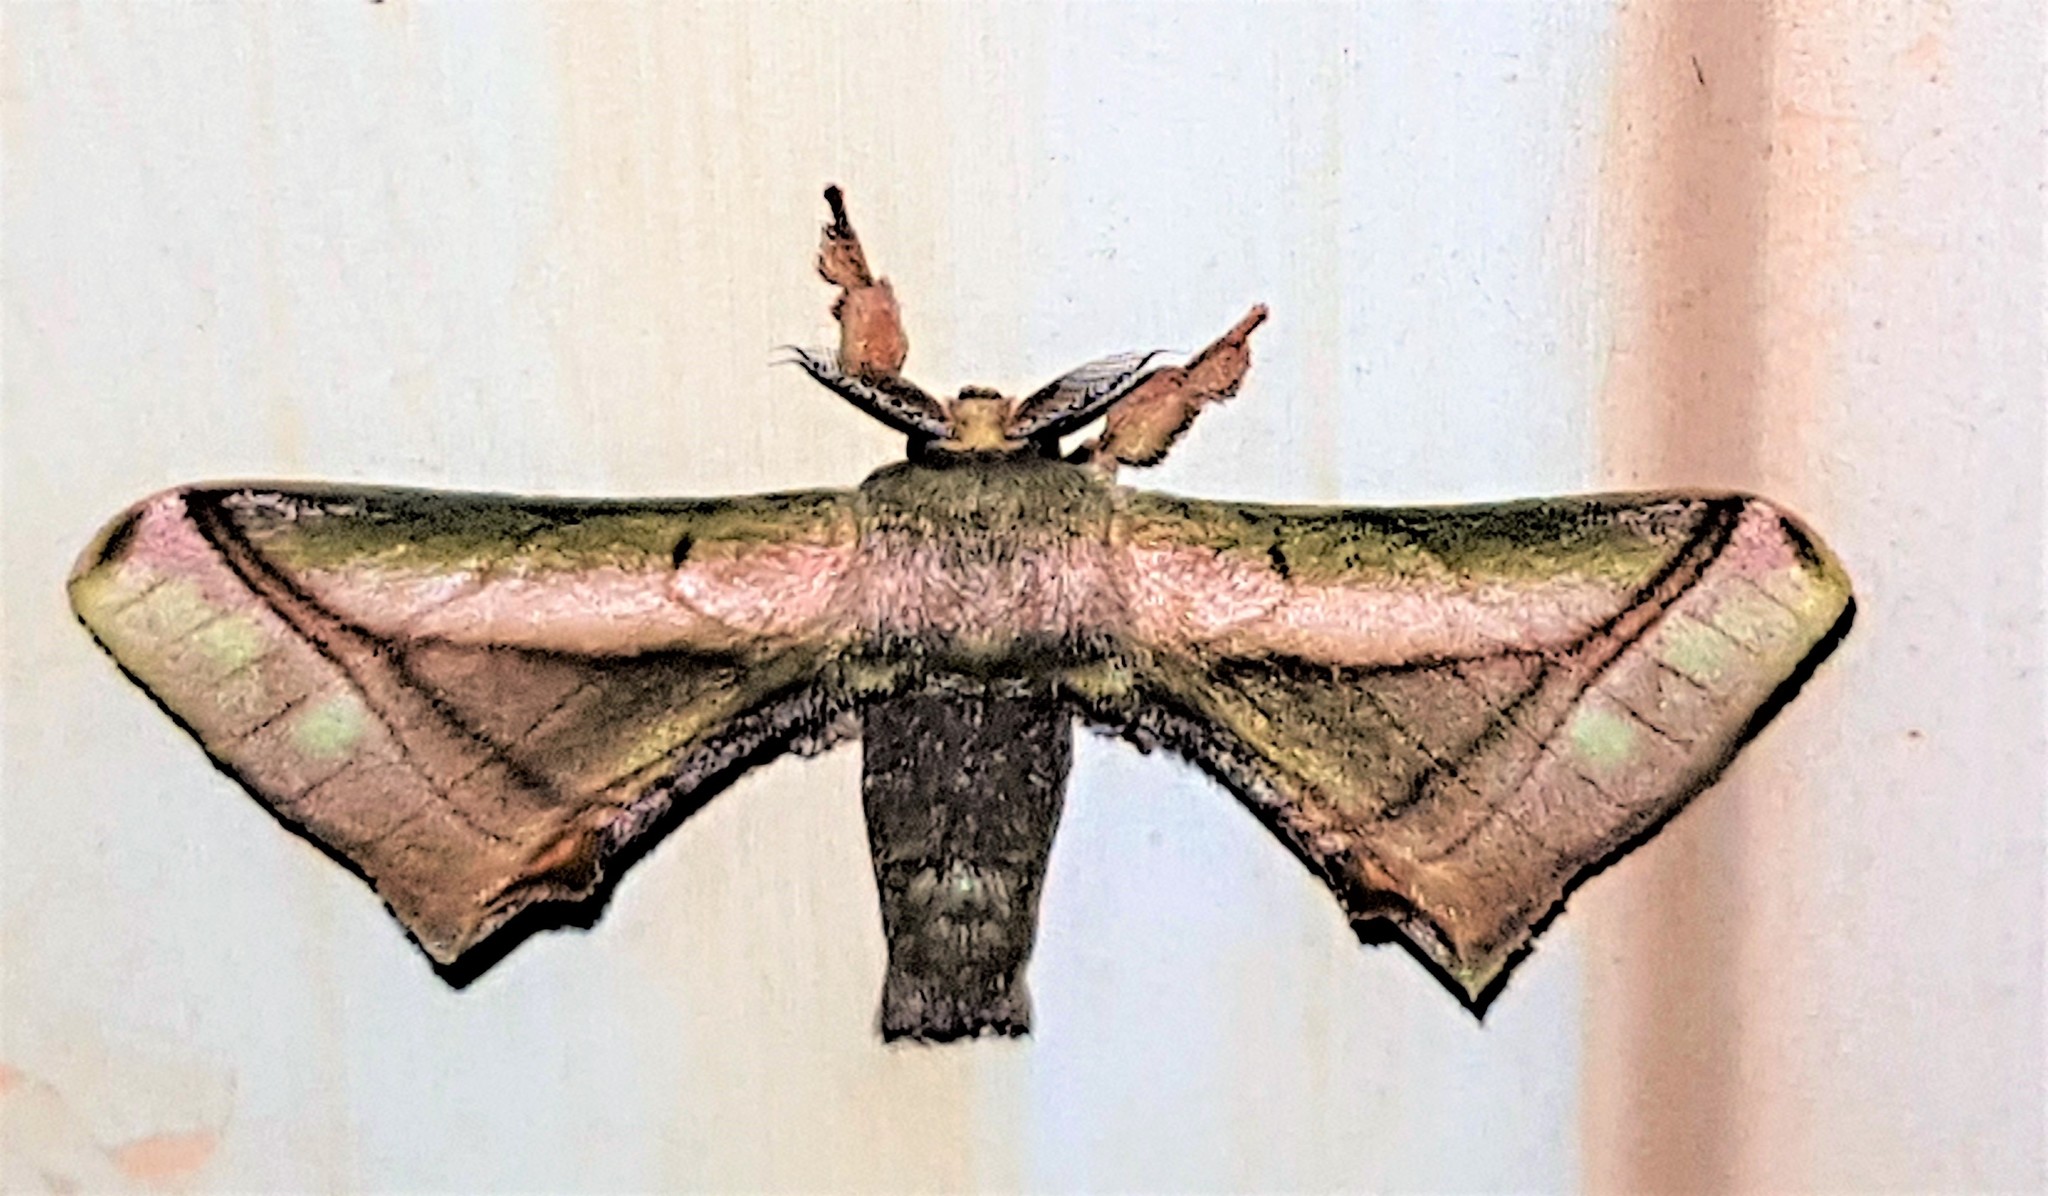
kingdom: Animalia
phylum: Arthropoda
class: Insecta
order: Lepidoptera
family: Bombycidae
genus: Epia
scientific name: Epia lebethra
